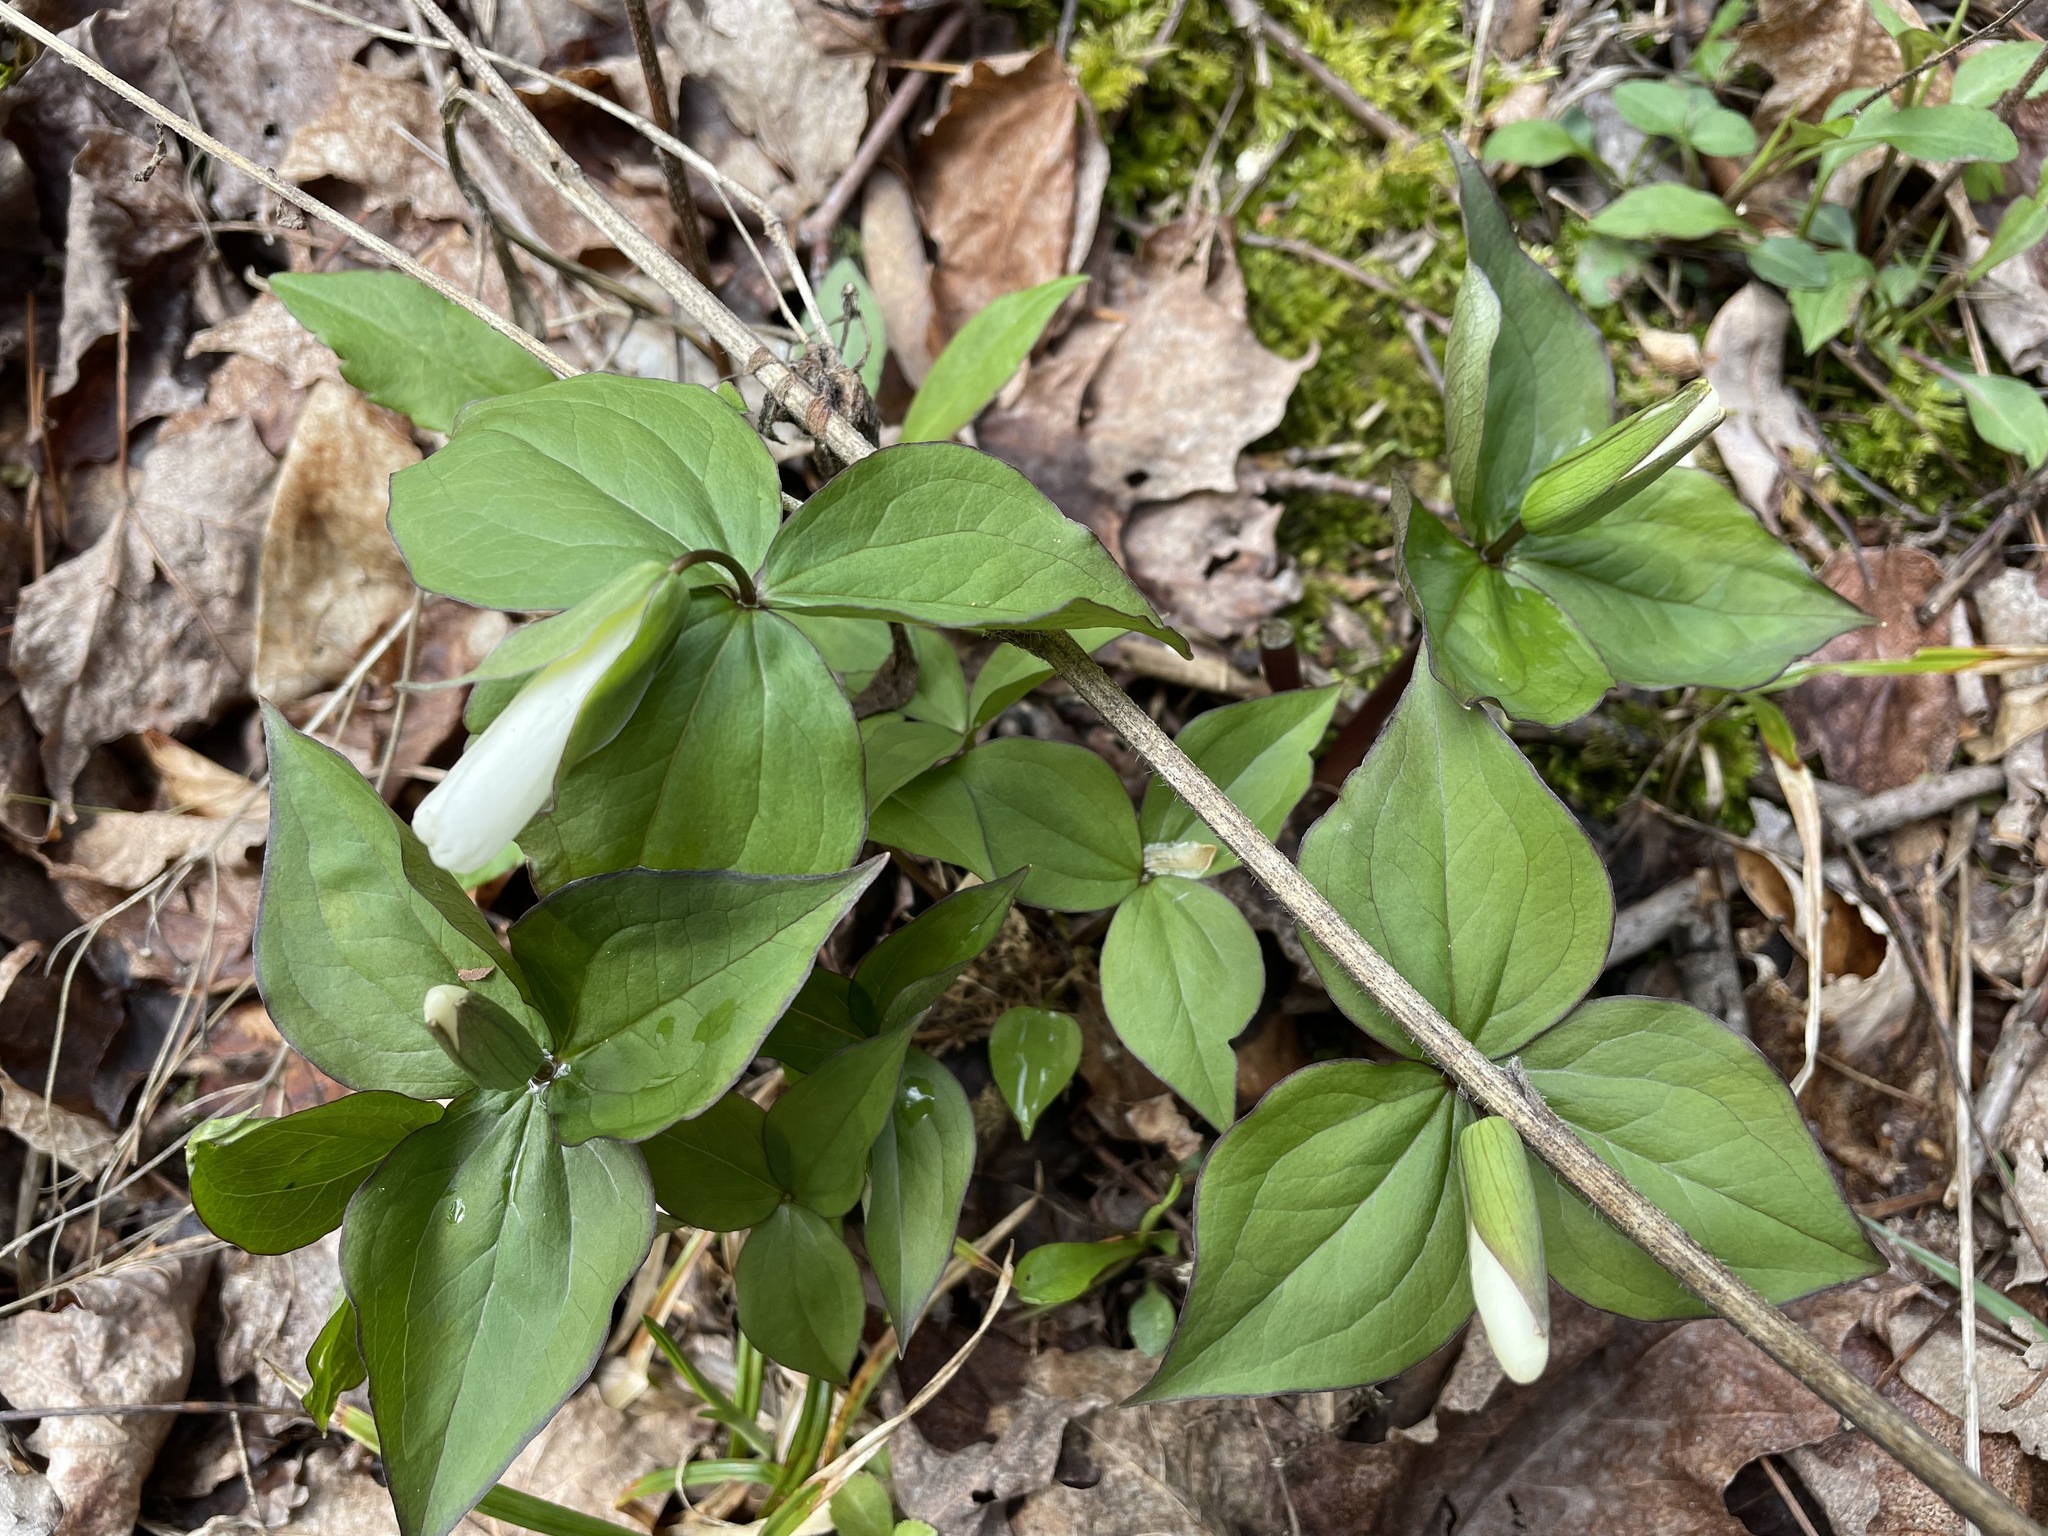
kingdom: Plantae
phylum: Tracheophyta
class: Liliopsida
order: Liliales
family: Melanthiaceae
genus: Trillium
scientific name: Trillium grandiflorum
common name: Great white trillium
